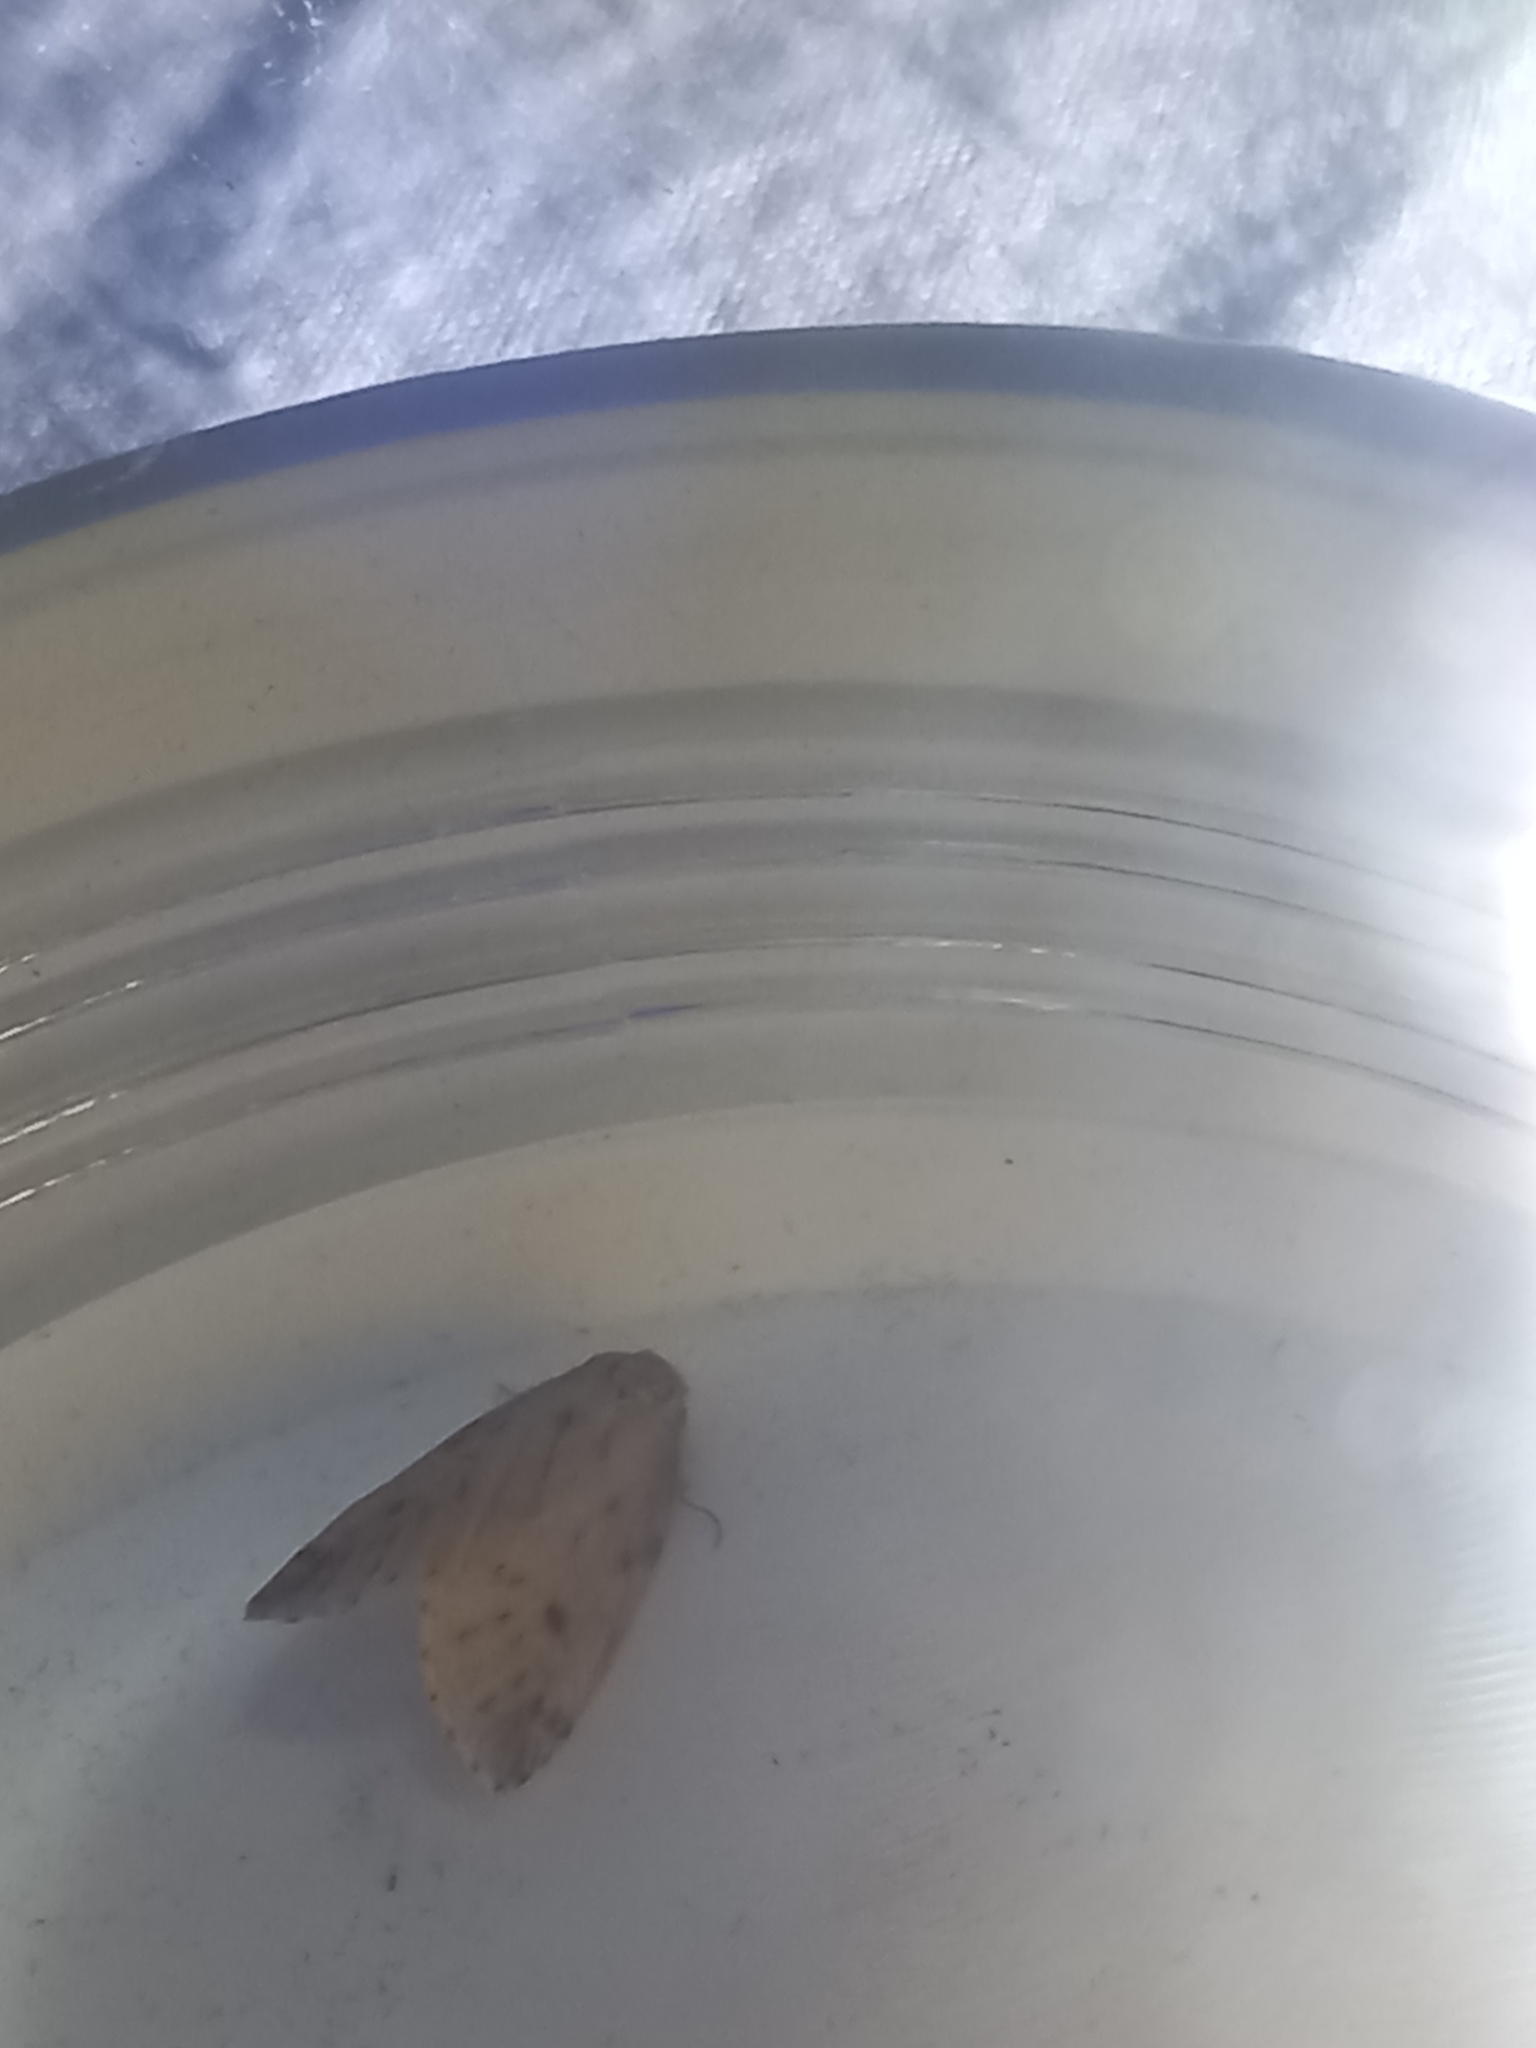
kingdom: Animalia
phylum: Arthropoda
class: Insecta
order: Lepidoptera
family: Erebidae
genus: Thumatha
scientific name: Thumatha senex
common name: Round-winged muslin
